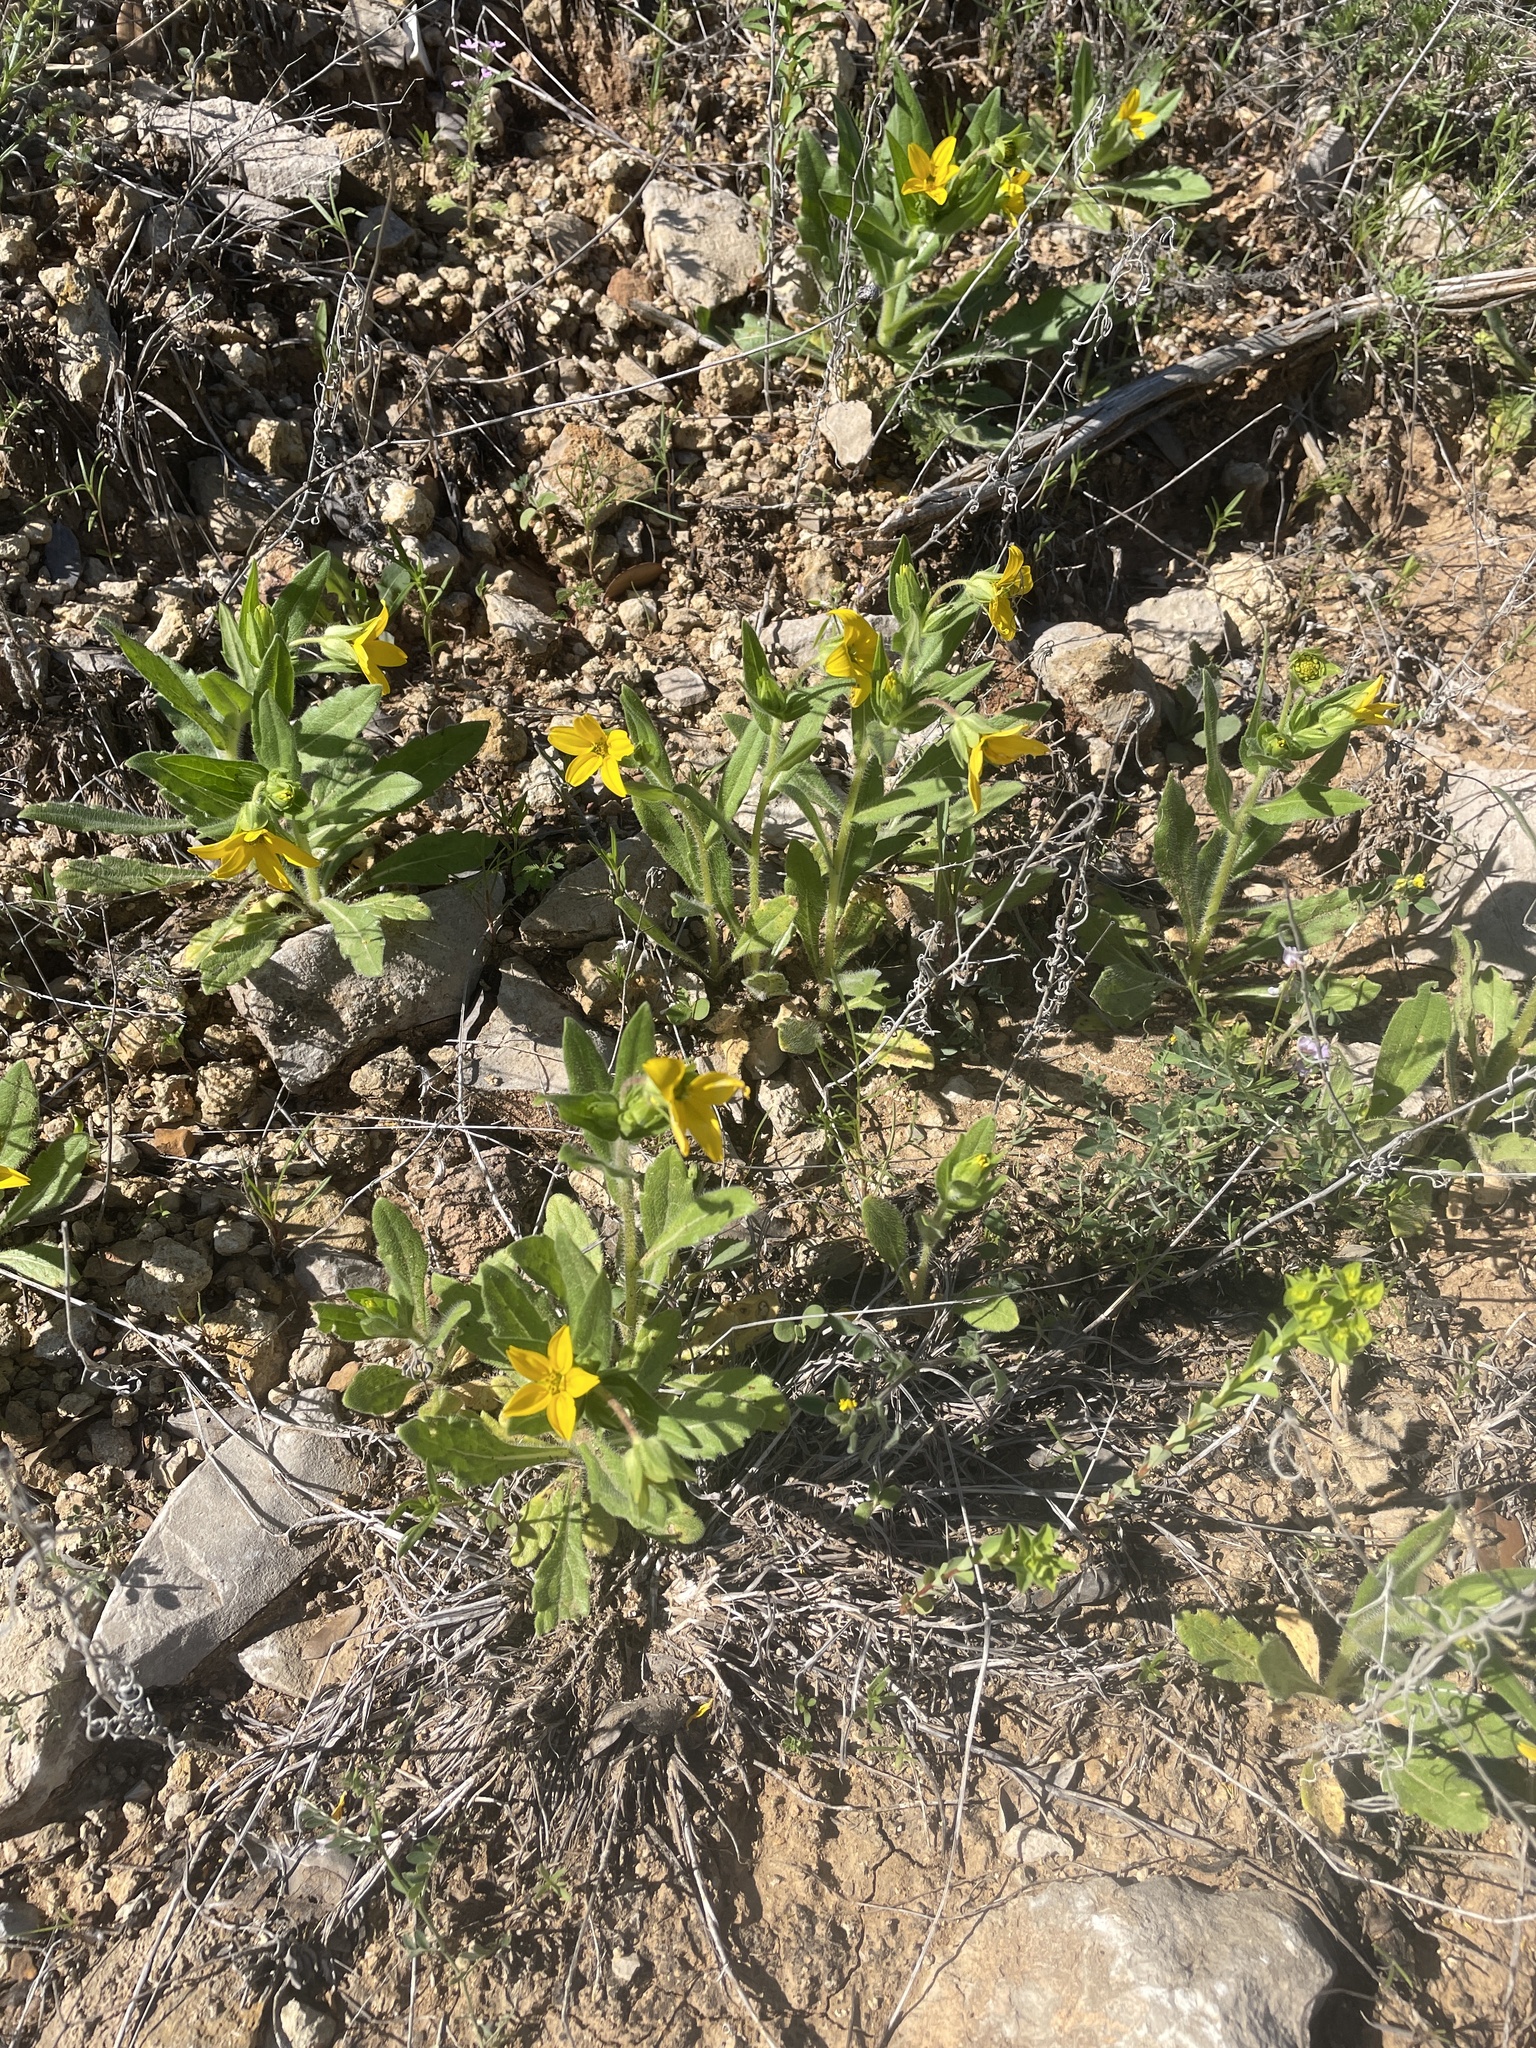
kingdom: Plantae
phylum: Tracheophyta
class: Magnoliopsida
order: Asterales
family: Asteraceae
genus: Lindheimera
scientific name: Lindheimera texana
